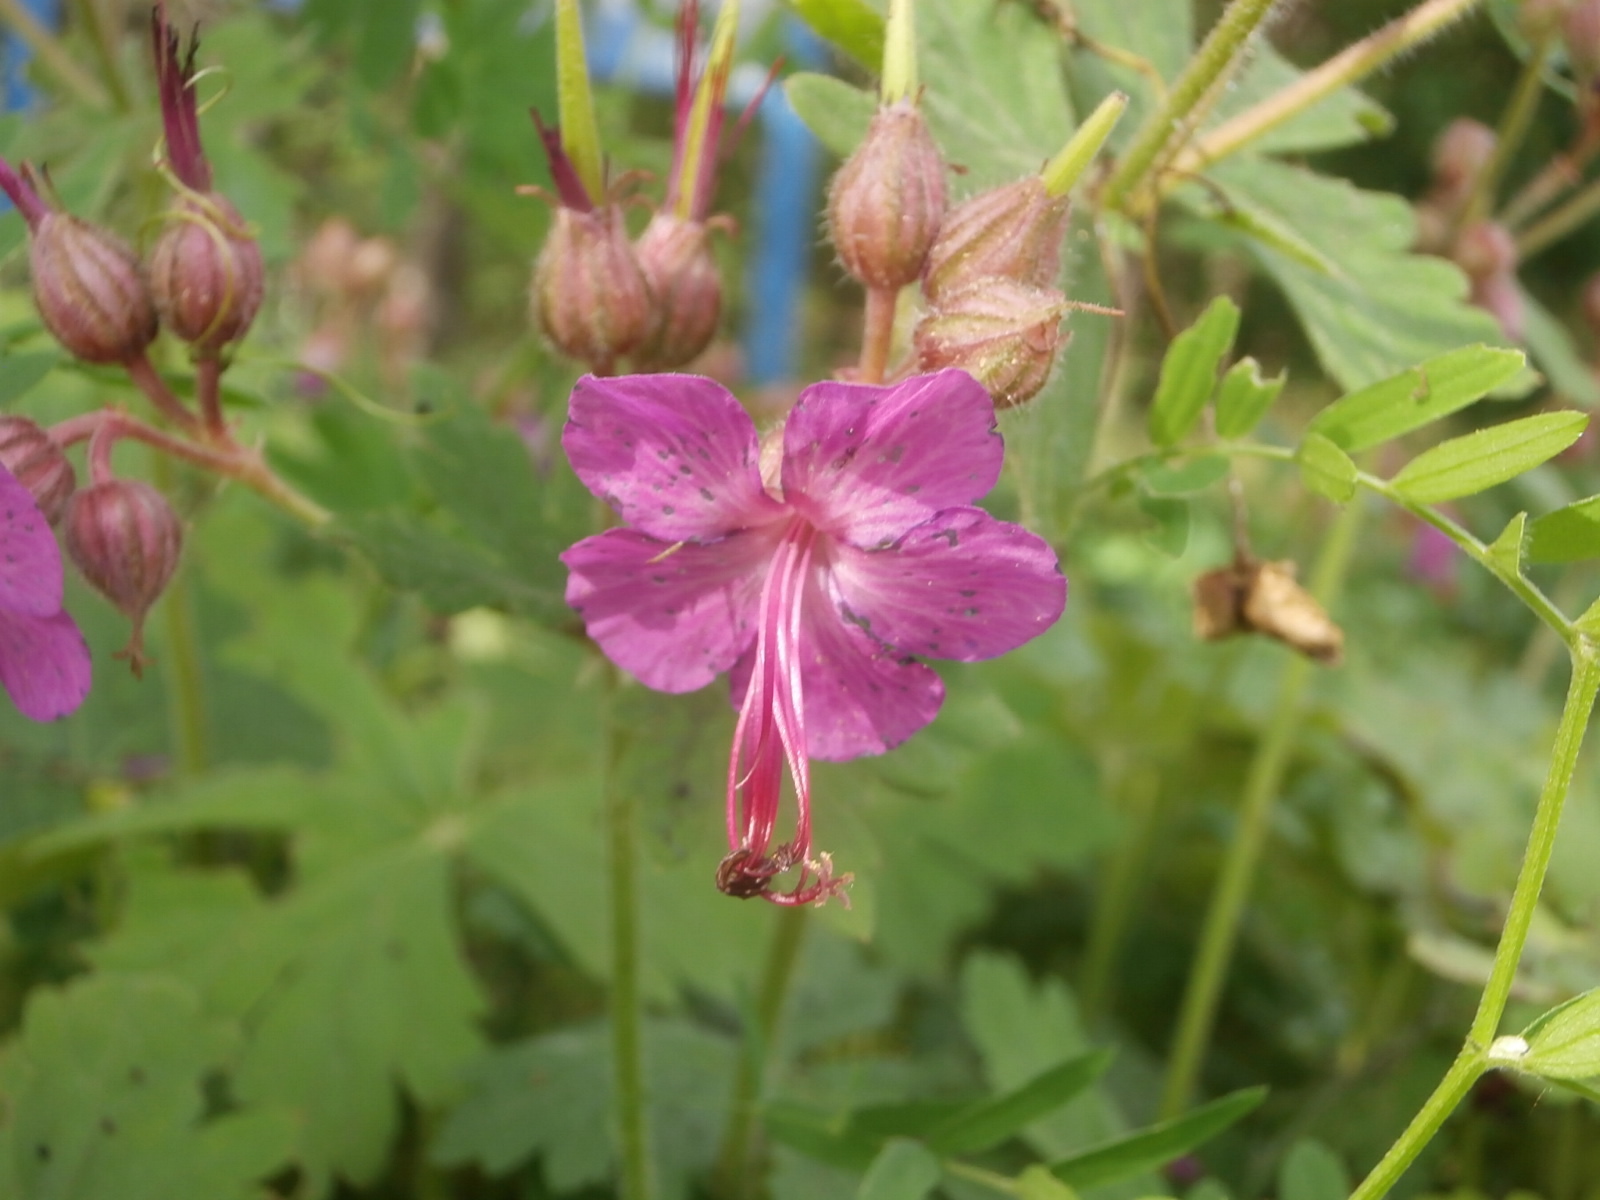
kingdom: Plantae
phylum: Tracheophyta
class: Magnoliopsida
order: Geraniales
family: Geraniaceae
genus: Geranium
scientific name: Geranium maculatum
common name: Spotted geranium
